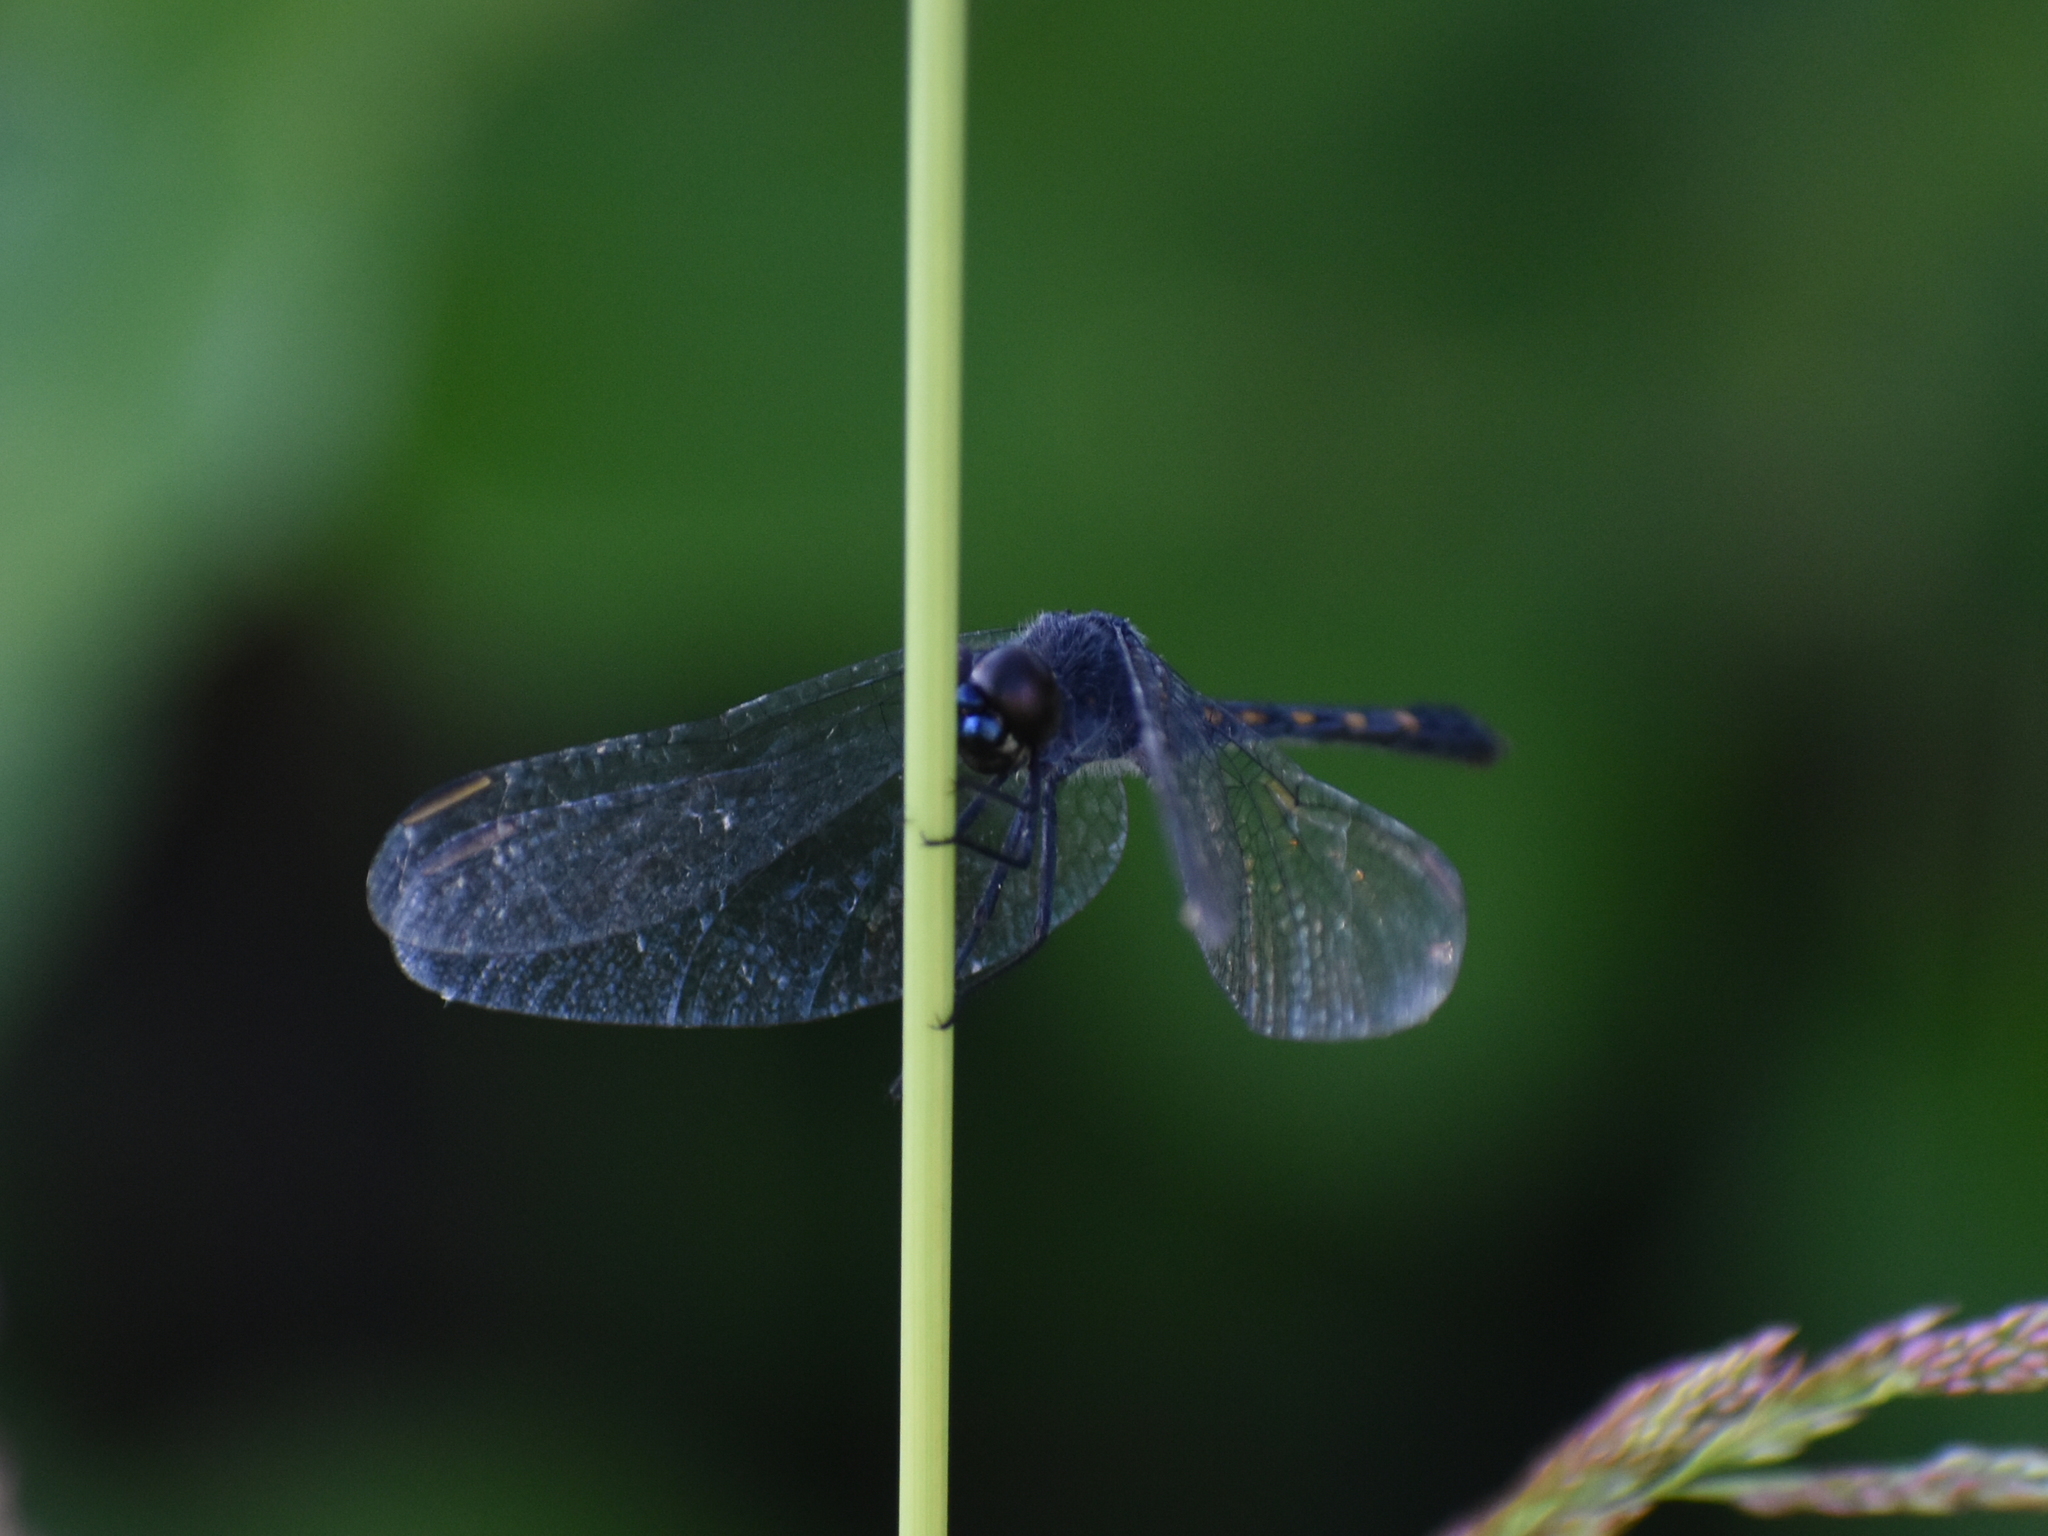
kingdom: Animalia
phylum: Arthropoda
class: Insecta
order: Odonata
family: Libellulidae
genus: Erythrodiplax
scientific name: Erythrodiplax berenice
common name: Seaside dragonlet
